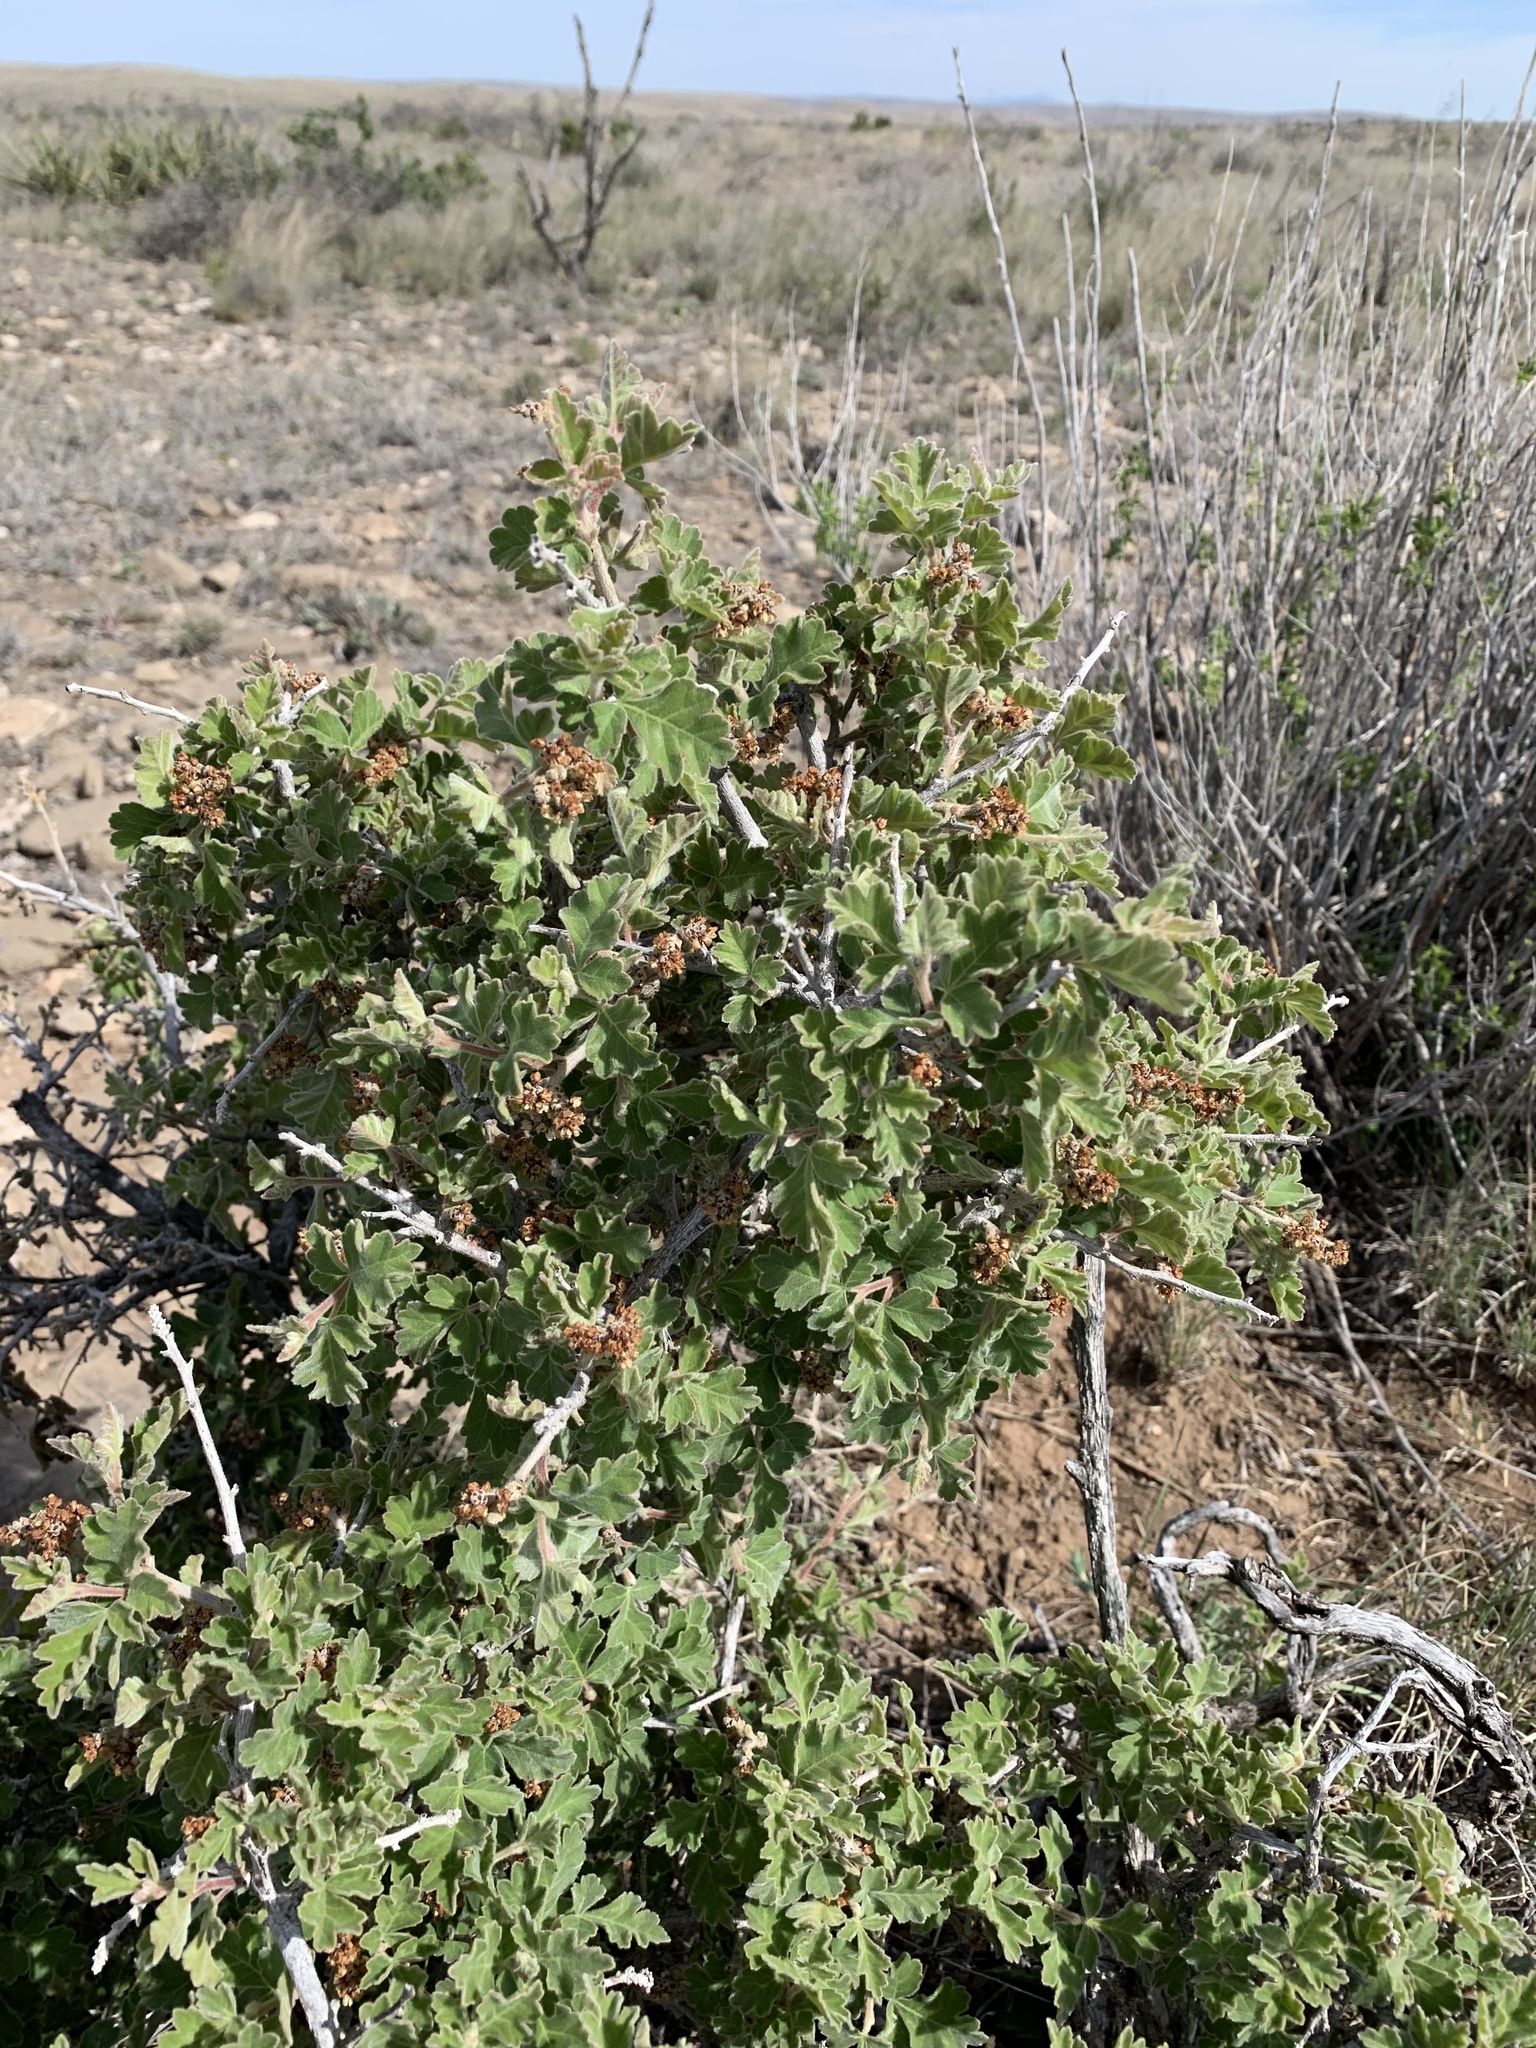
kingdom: Plantae
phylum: Tracheophyta
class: Magnoliopsida
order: Sapindales
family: Anacardiaceae
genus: Rhus
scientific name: Rhus aromatica
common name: Aromatic sumac
